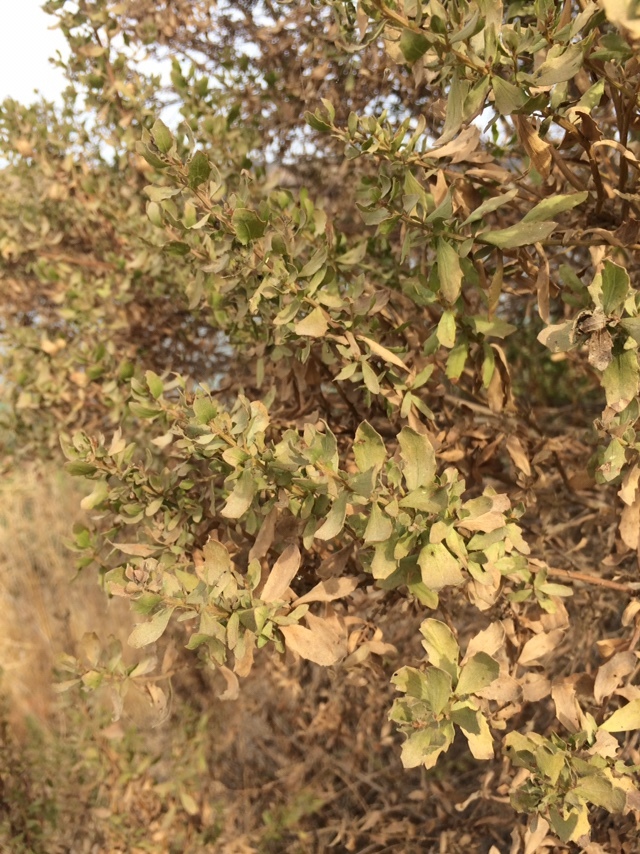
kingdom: Plantae
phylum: Tracheophyta
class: Magnoliopsida
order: Asterales
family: Asteraceae
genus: Baccharis
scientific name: Baccharis pilularis
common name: Coyotebrush
